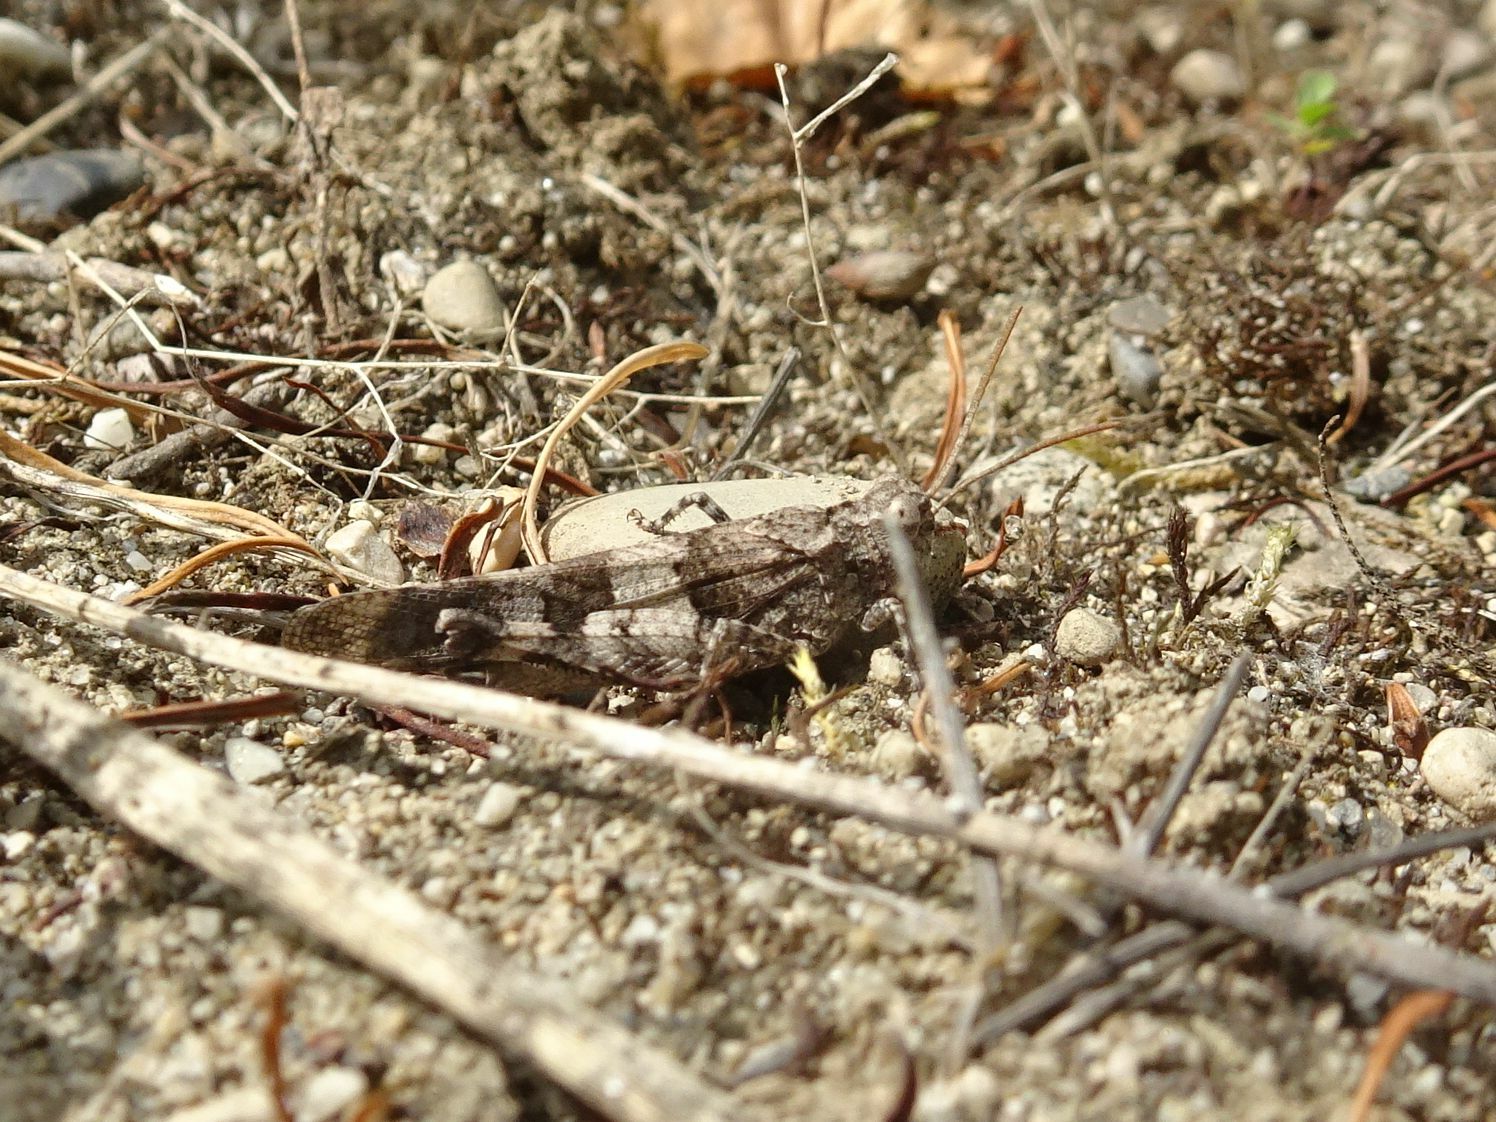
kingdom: Animalia
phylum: Arthropoda
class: Insecta
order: Orthoptera
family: Acrididae
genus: Oedipoda
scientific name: Oedipoda caerulescens
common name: Blue-winged grasshopper
